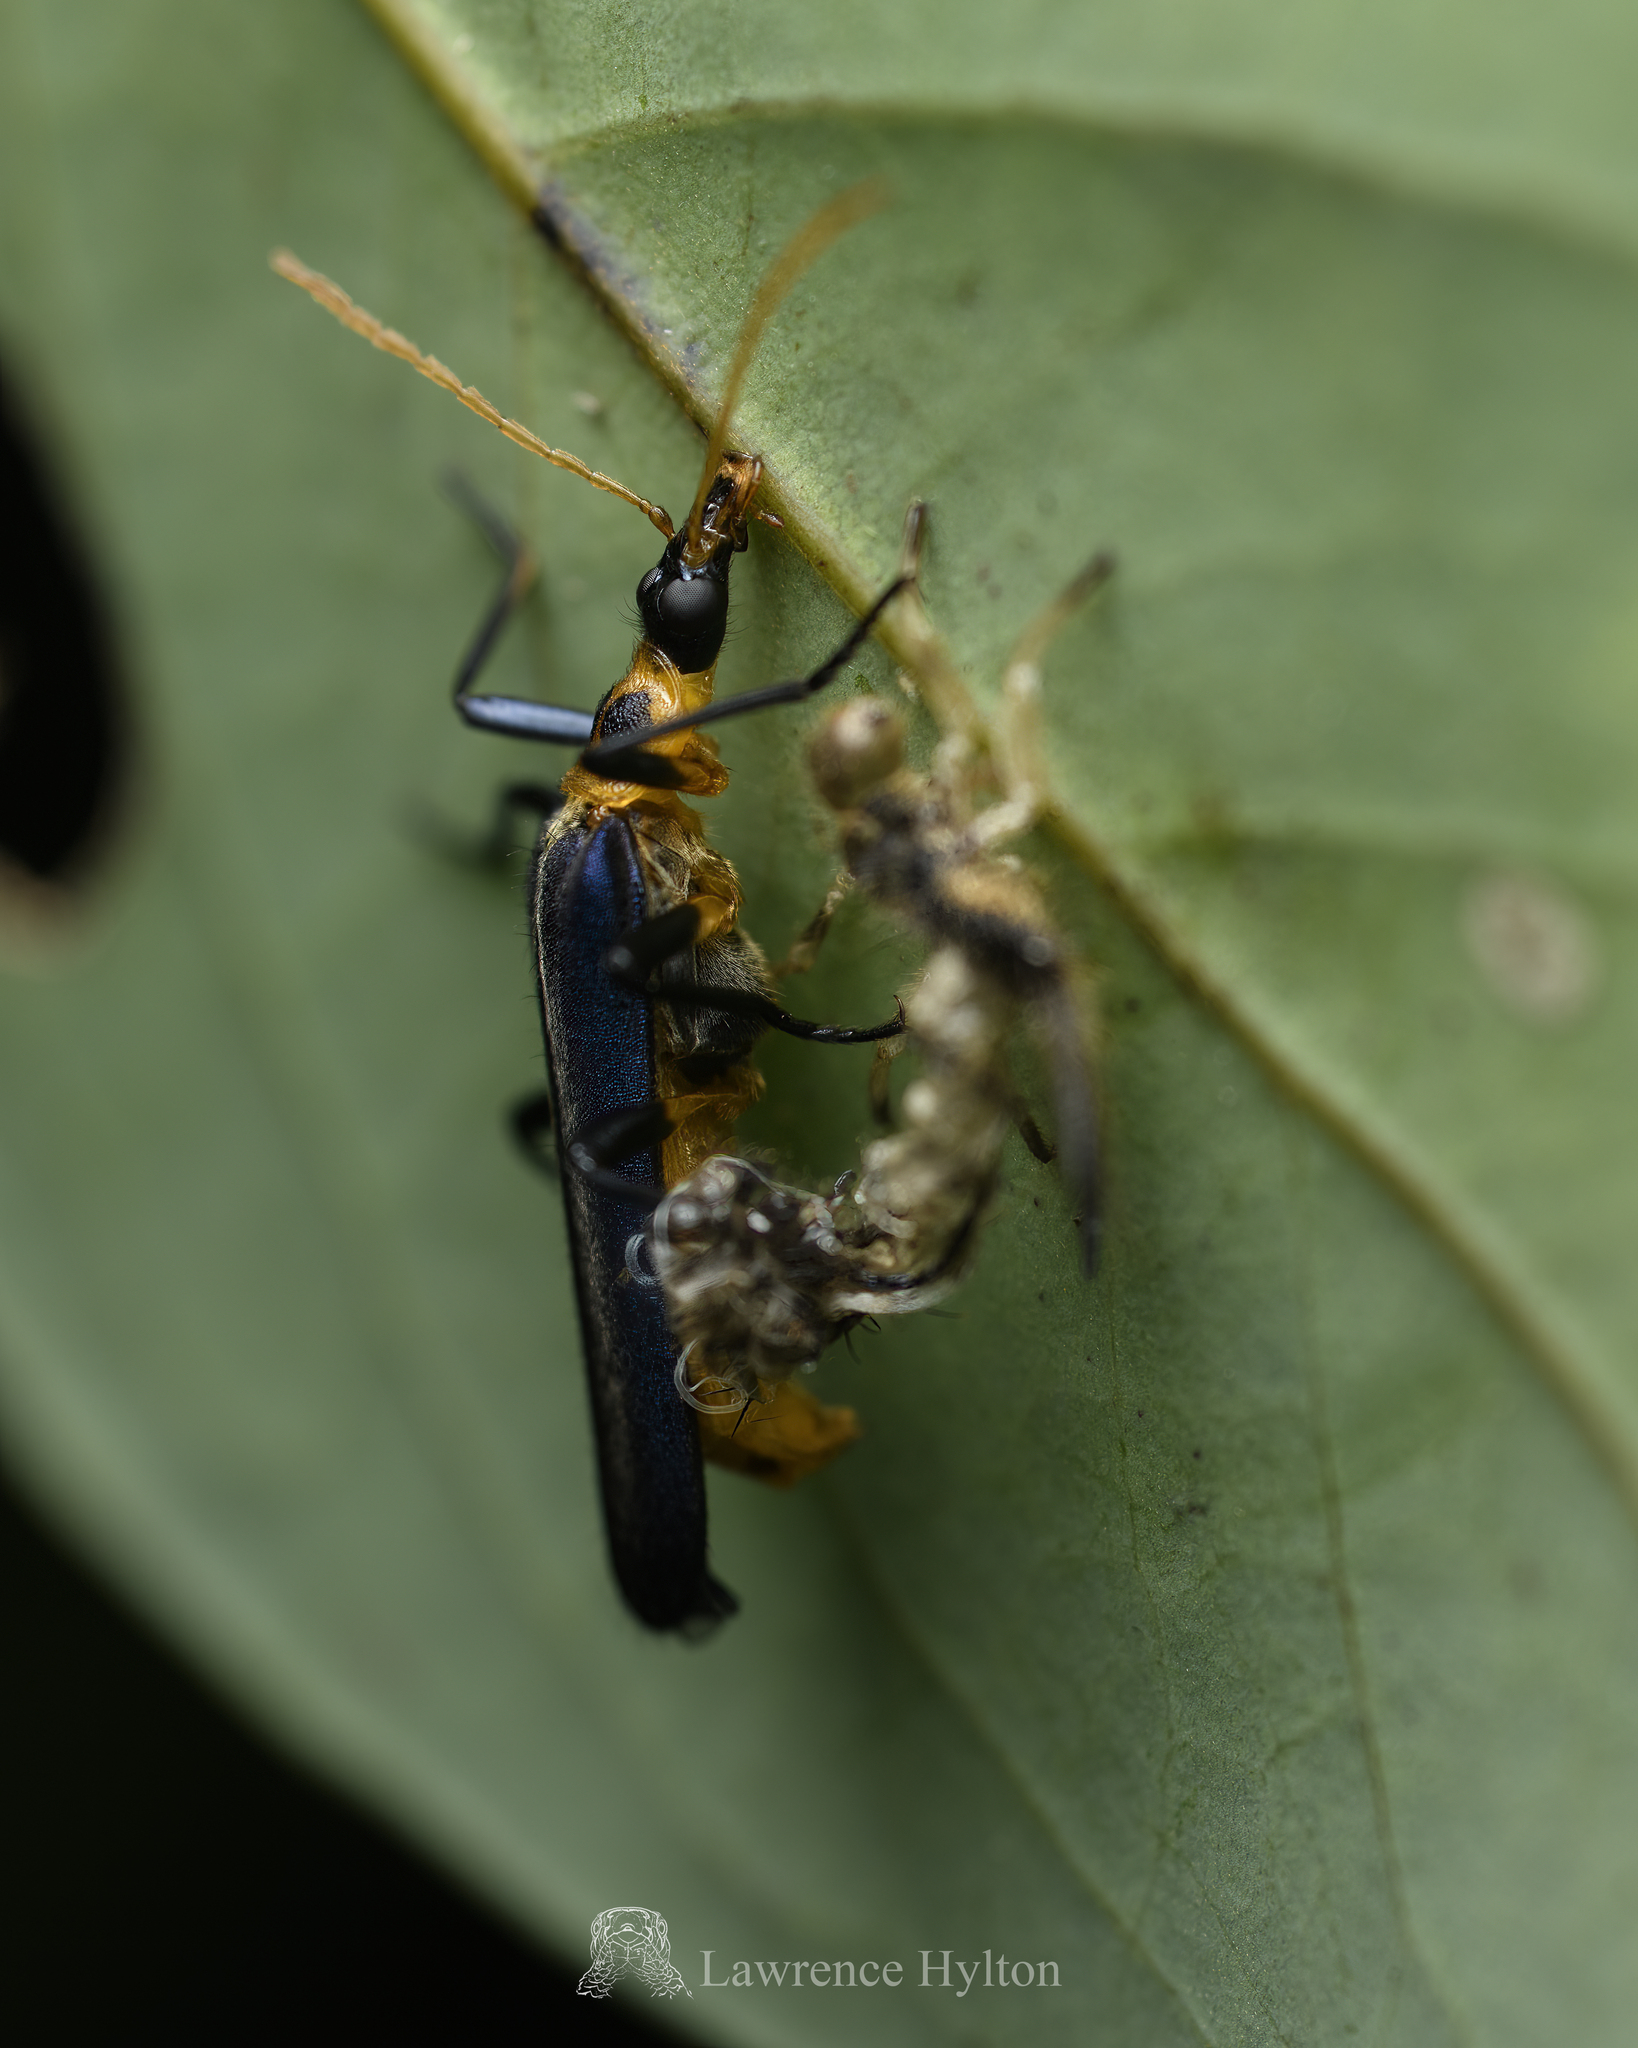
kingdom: Animalia
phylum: Arthropoda
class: Insecta
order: Coleoptera
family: Prionoceridae
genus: Idgia
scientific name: Idgia
